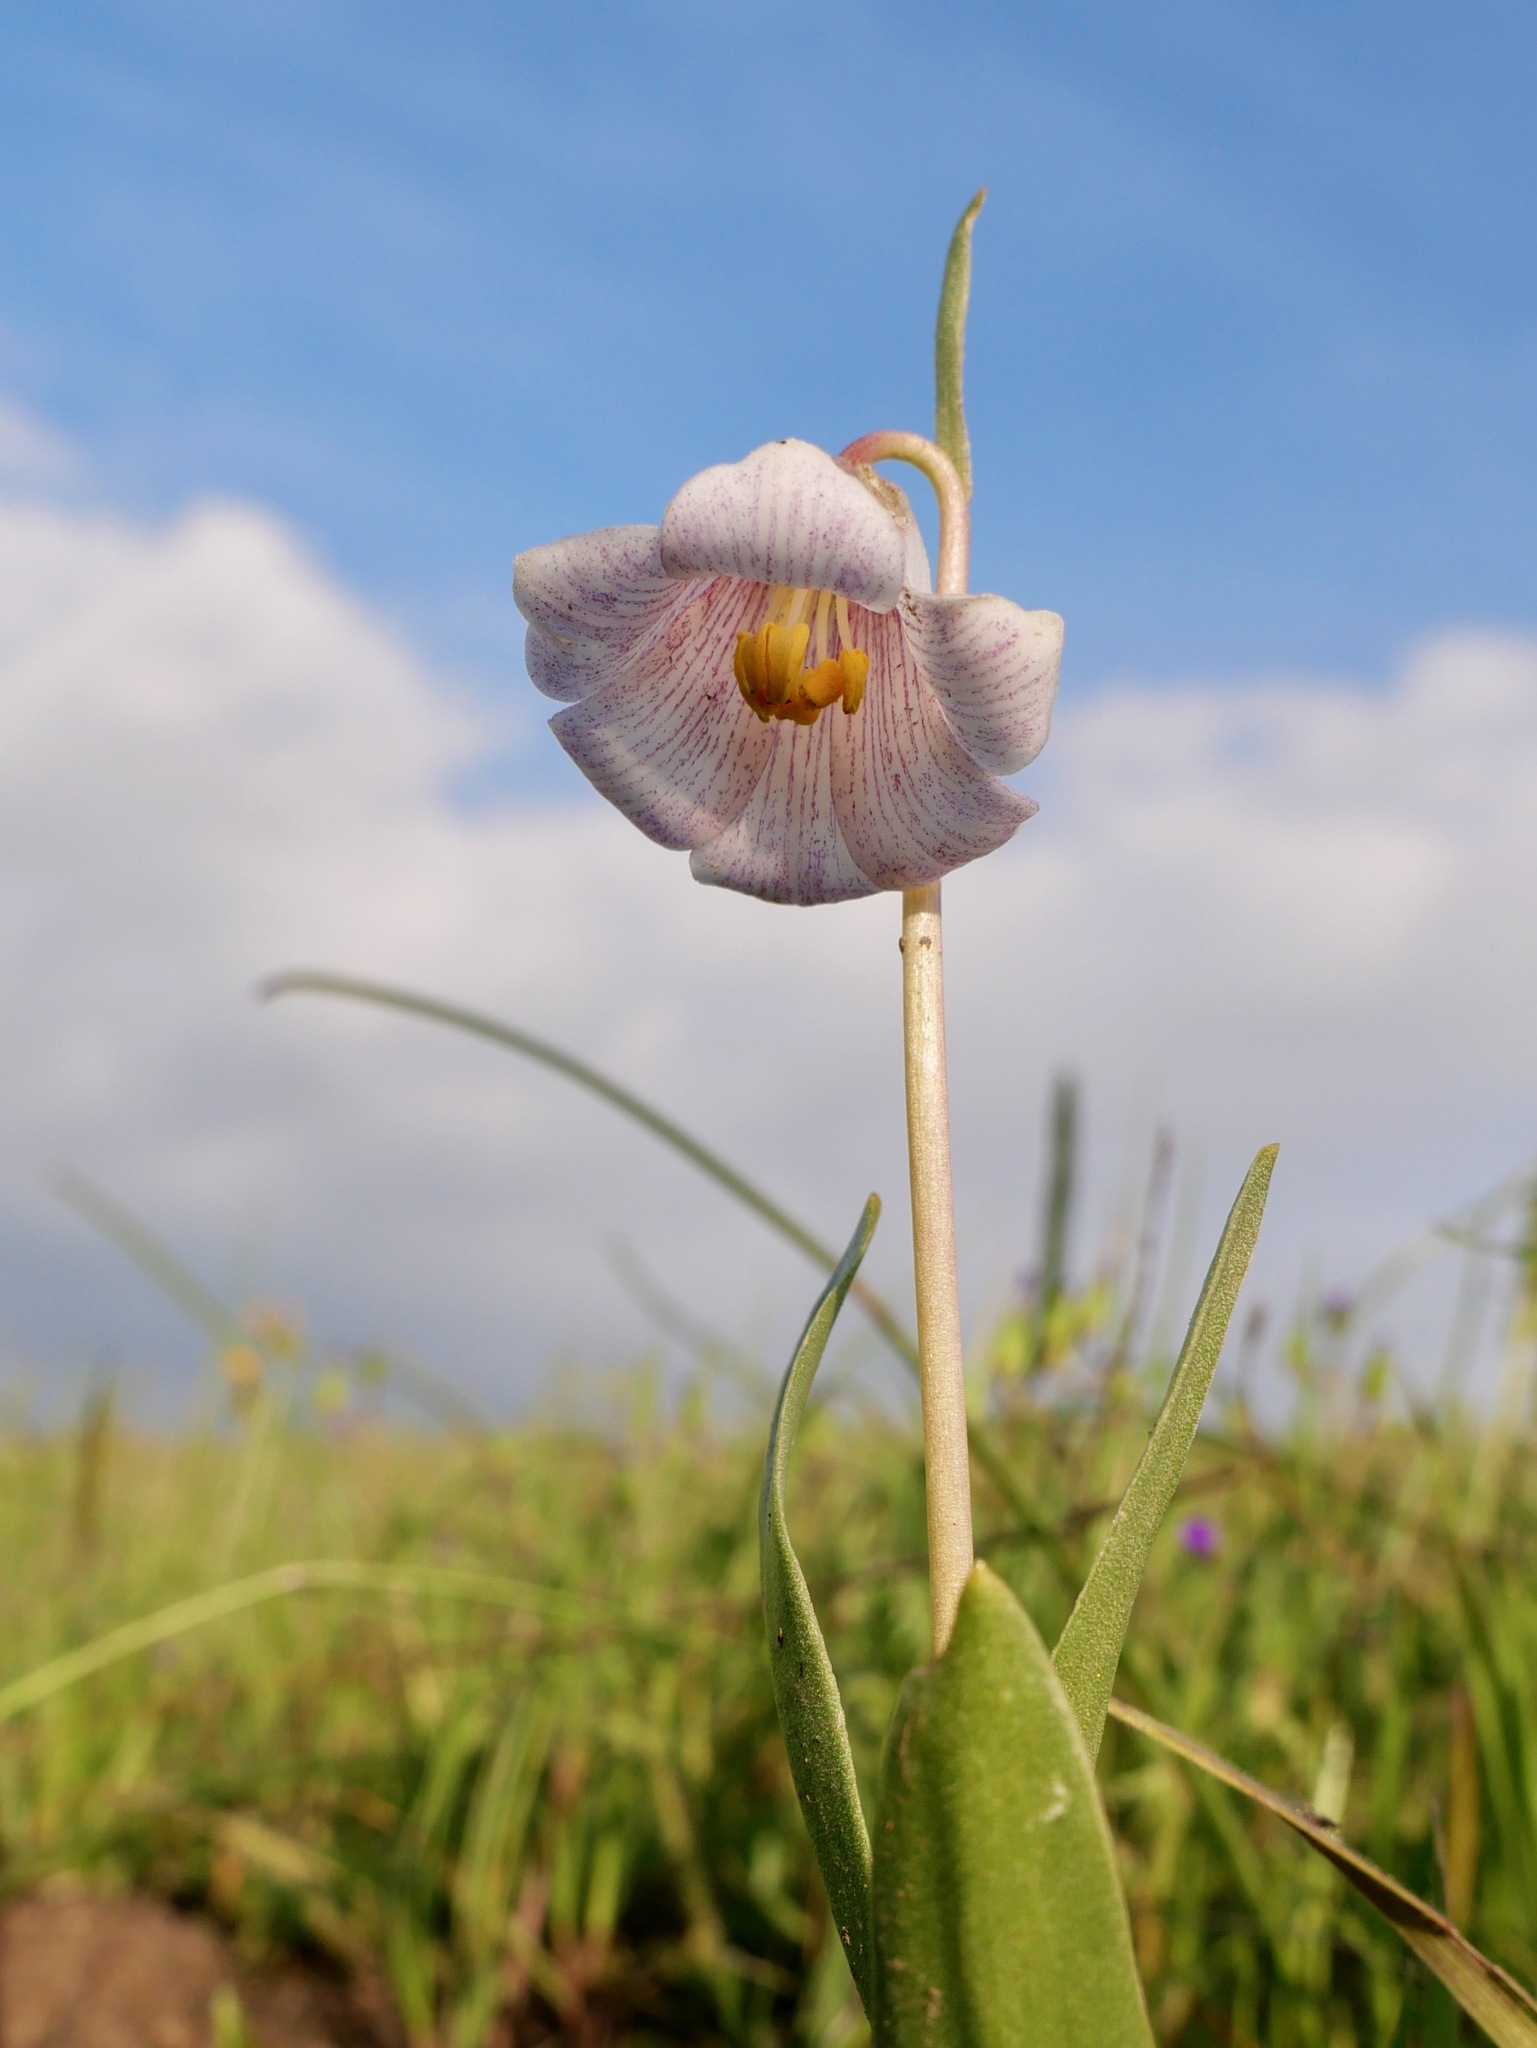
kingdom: Plantae
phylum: Tracheophyta
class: Liliopsida
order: Liliales
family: Liliaceae
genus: Fritillaria
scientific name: Fritillaria striata
